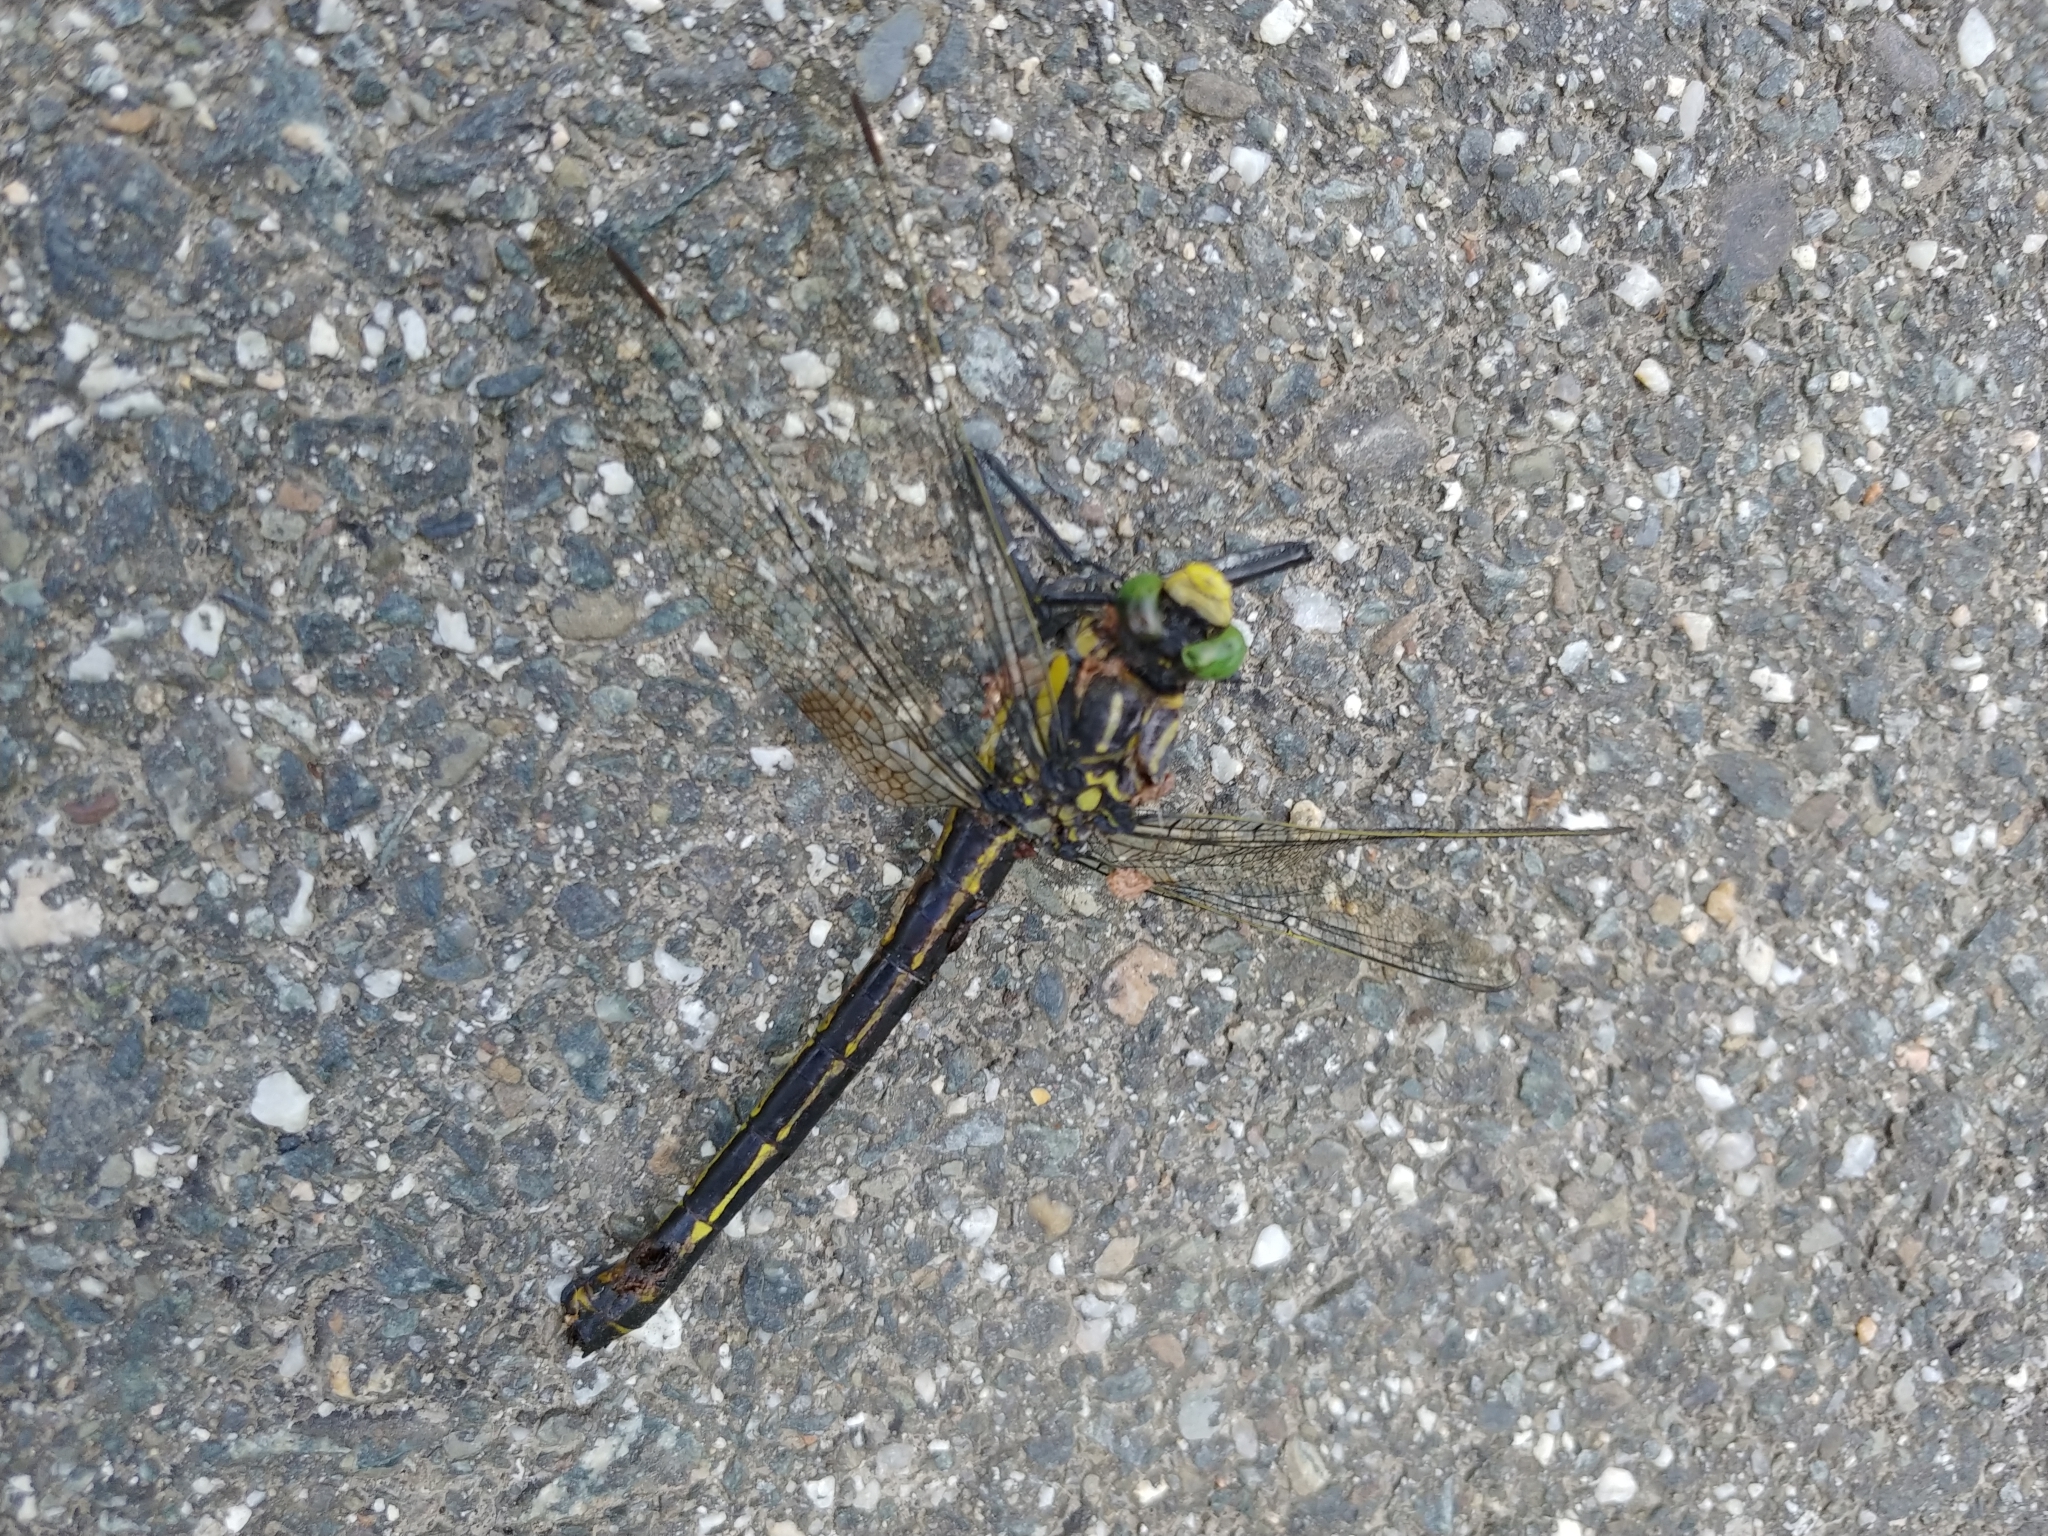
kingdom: Animalia
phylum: Arthropoda
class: Insecta
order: Odonata
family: Gomphidae
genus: Hagenius
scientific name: Hagenius brevistylus
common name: Dragonhunter
